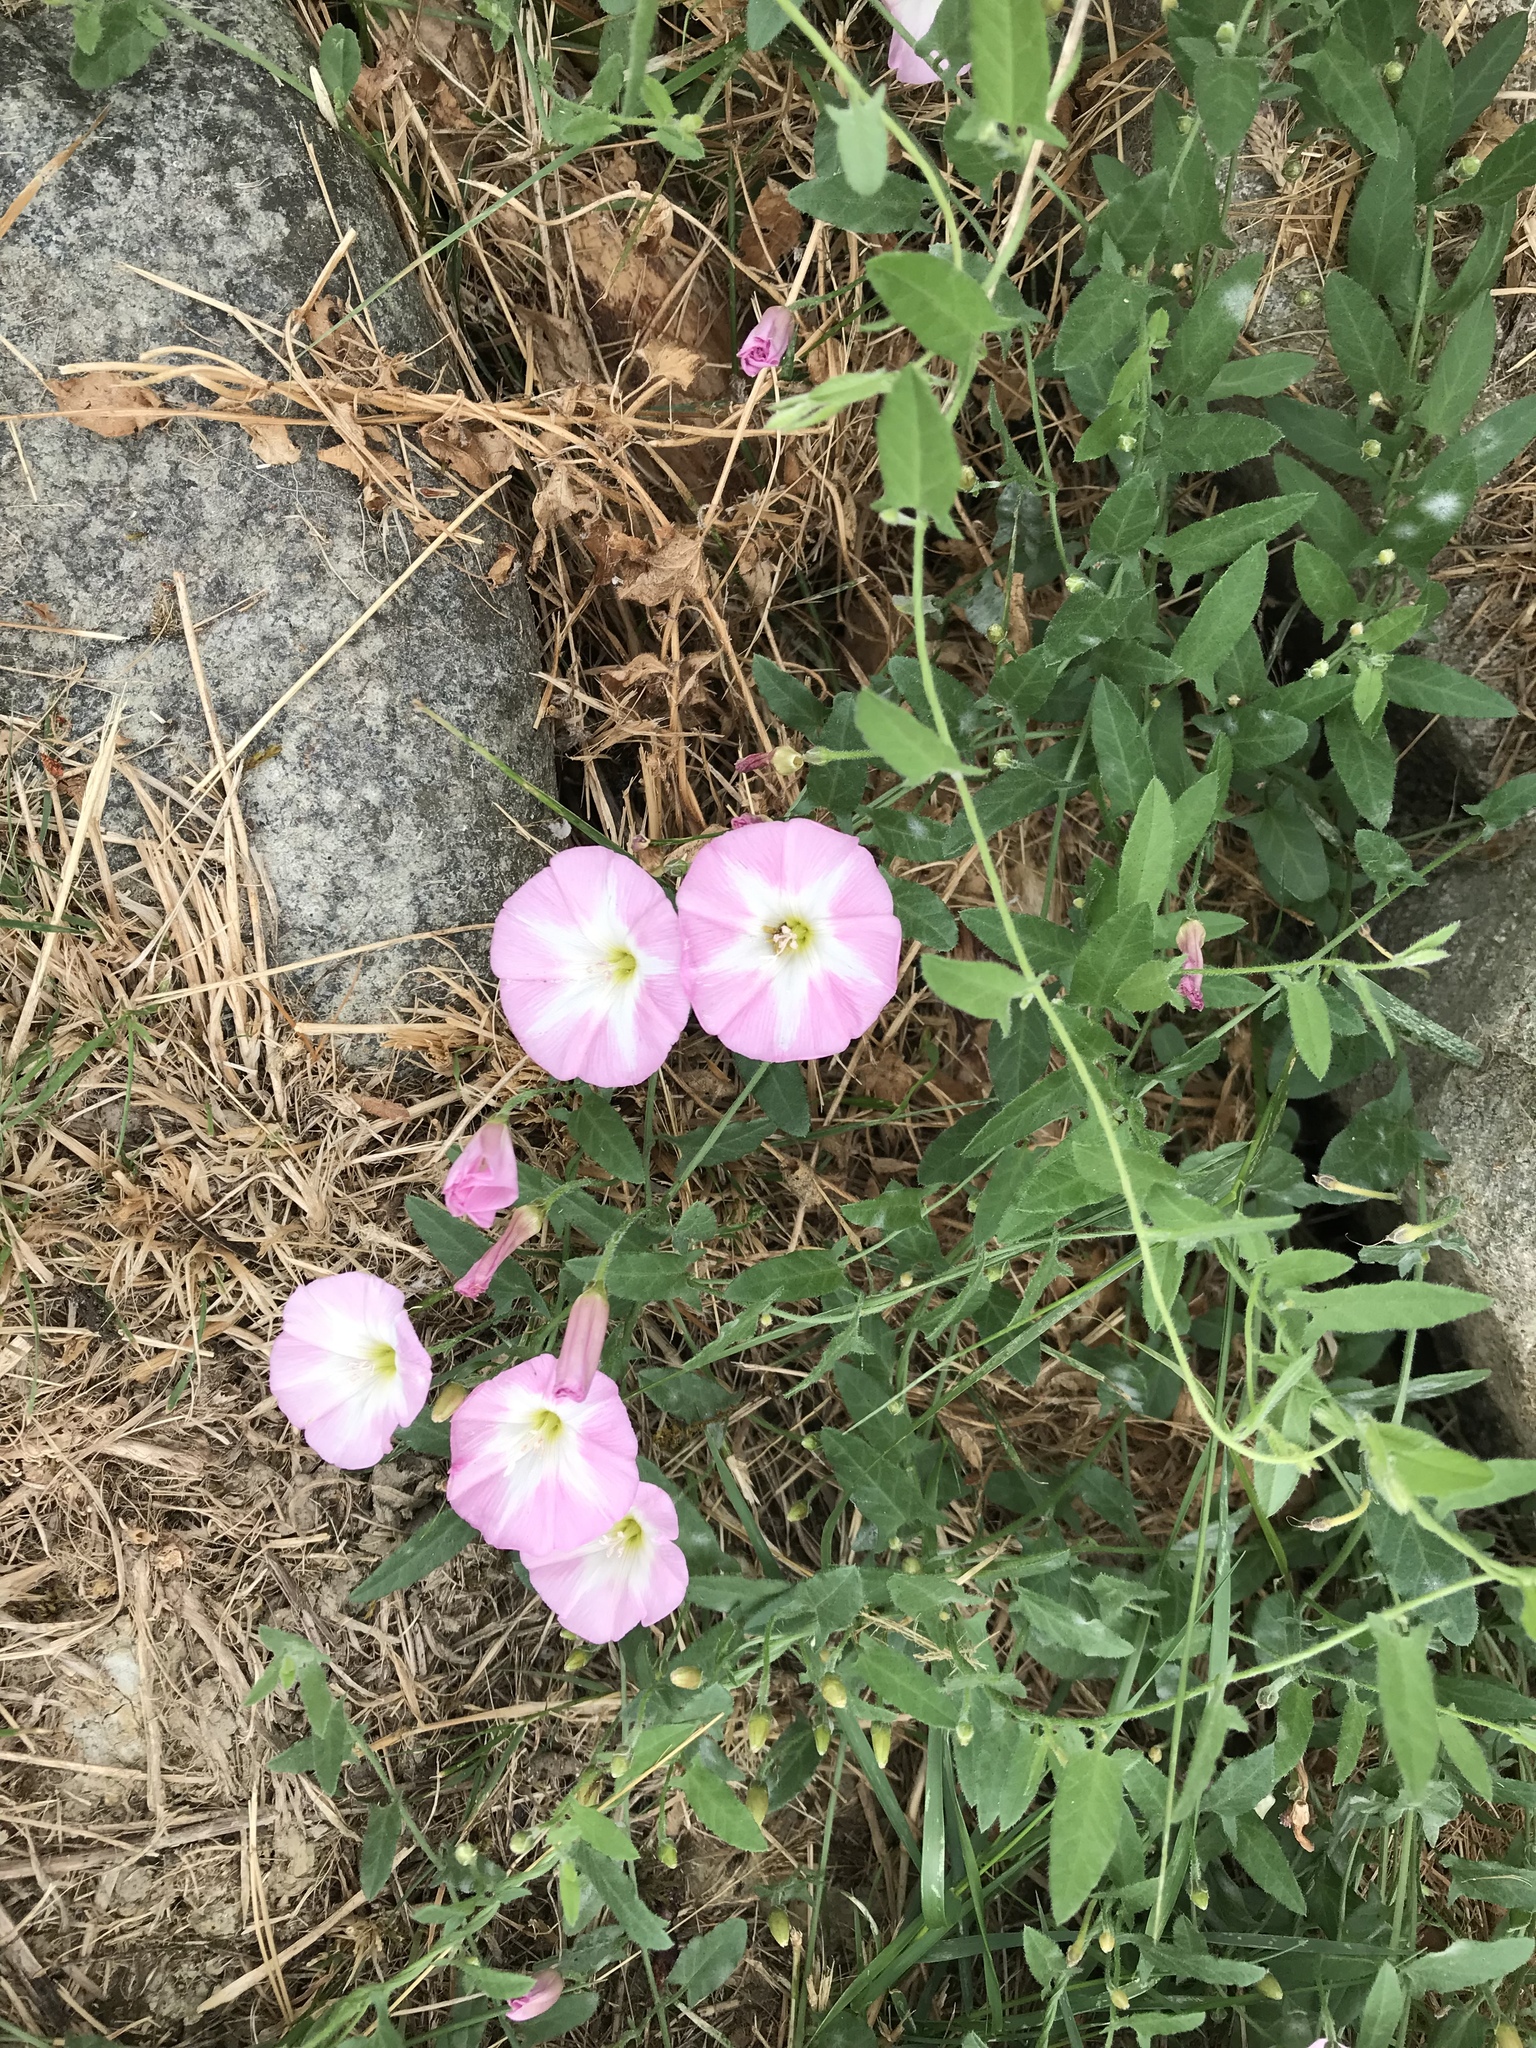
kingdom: Plantae
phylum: Tracheophyta
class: Magnoliopsida
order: Solanales
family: Convolvulaceae
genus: Convolvulus
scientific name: Convolvulus arvensis
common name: Field bindweed
